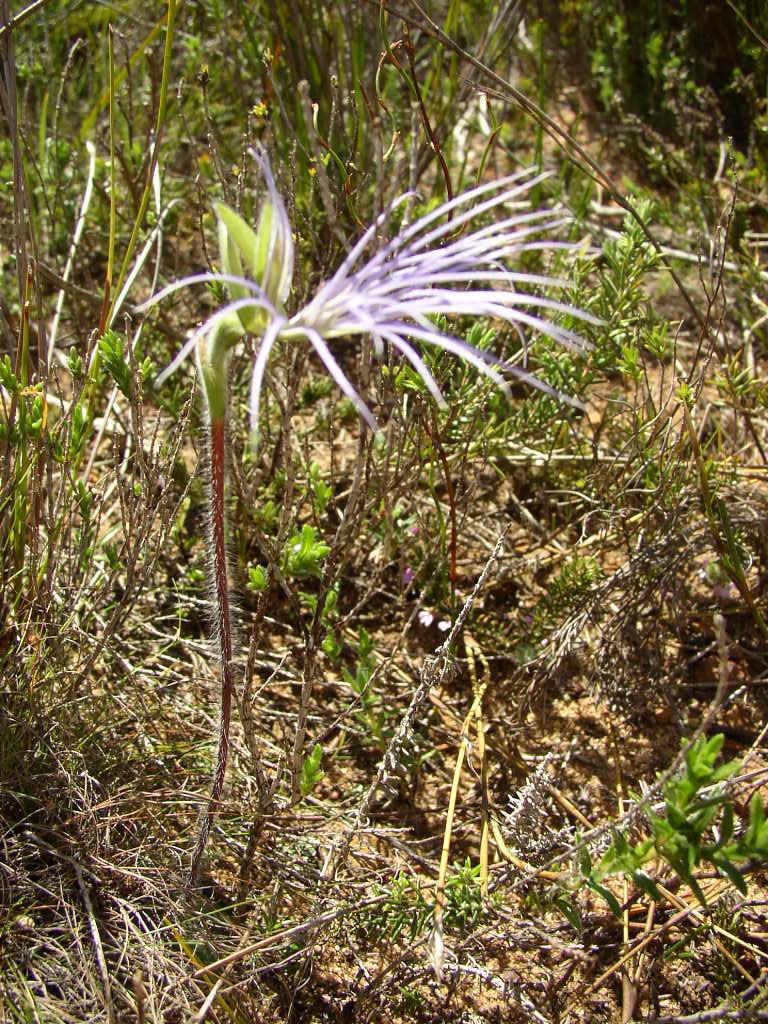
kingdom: Plantae
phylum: Tracheophyta
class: Liliopsida
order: Asparagales
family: Orchidaceae
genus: Holothrix
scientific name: Holothrix burmanniana
